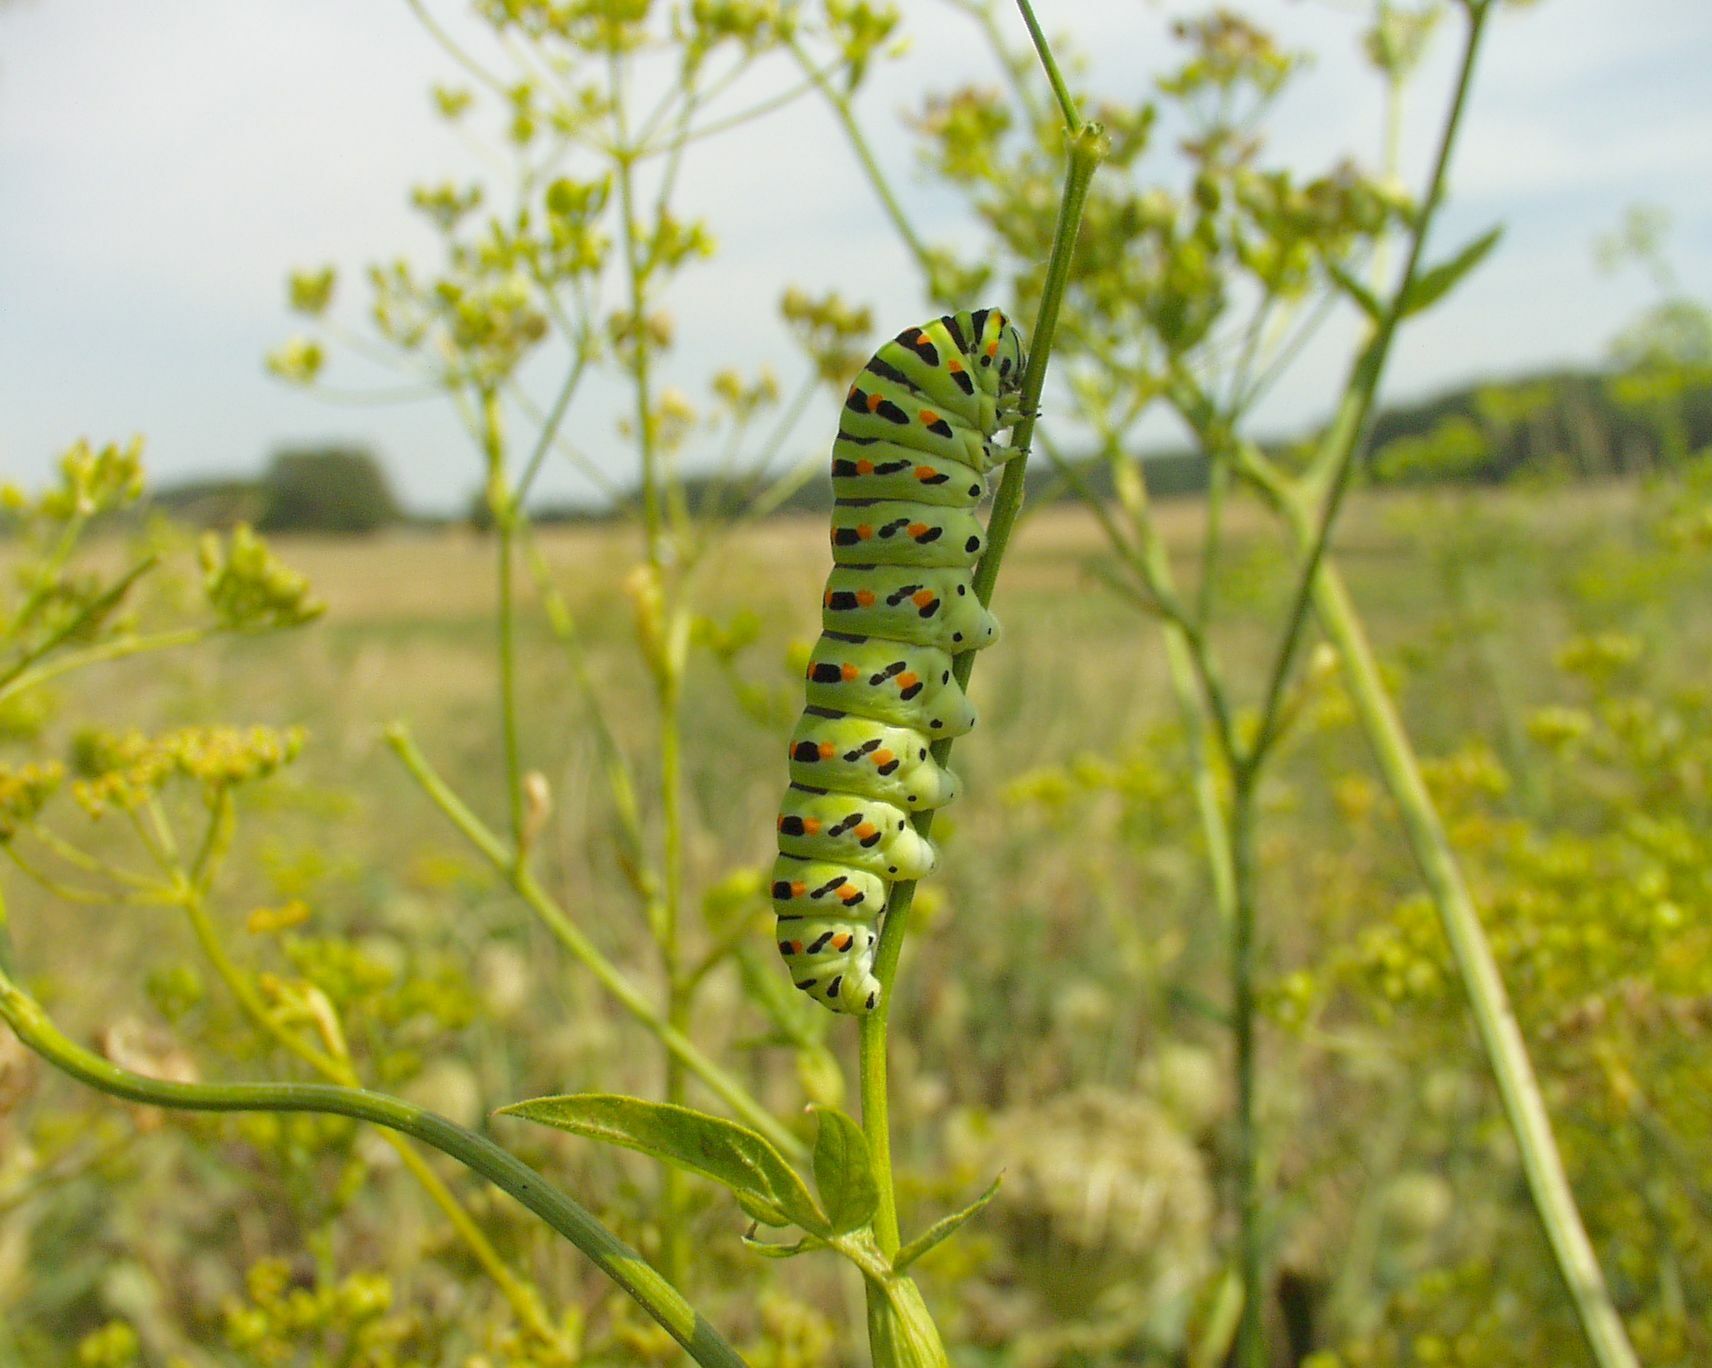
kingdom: Animalia
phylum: Arthropoda
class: Insecta
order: Lepidoptera
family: Papilionidae
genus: Papilio
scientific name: Papilio machaon
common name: Swallowtail
